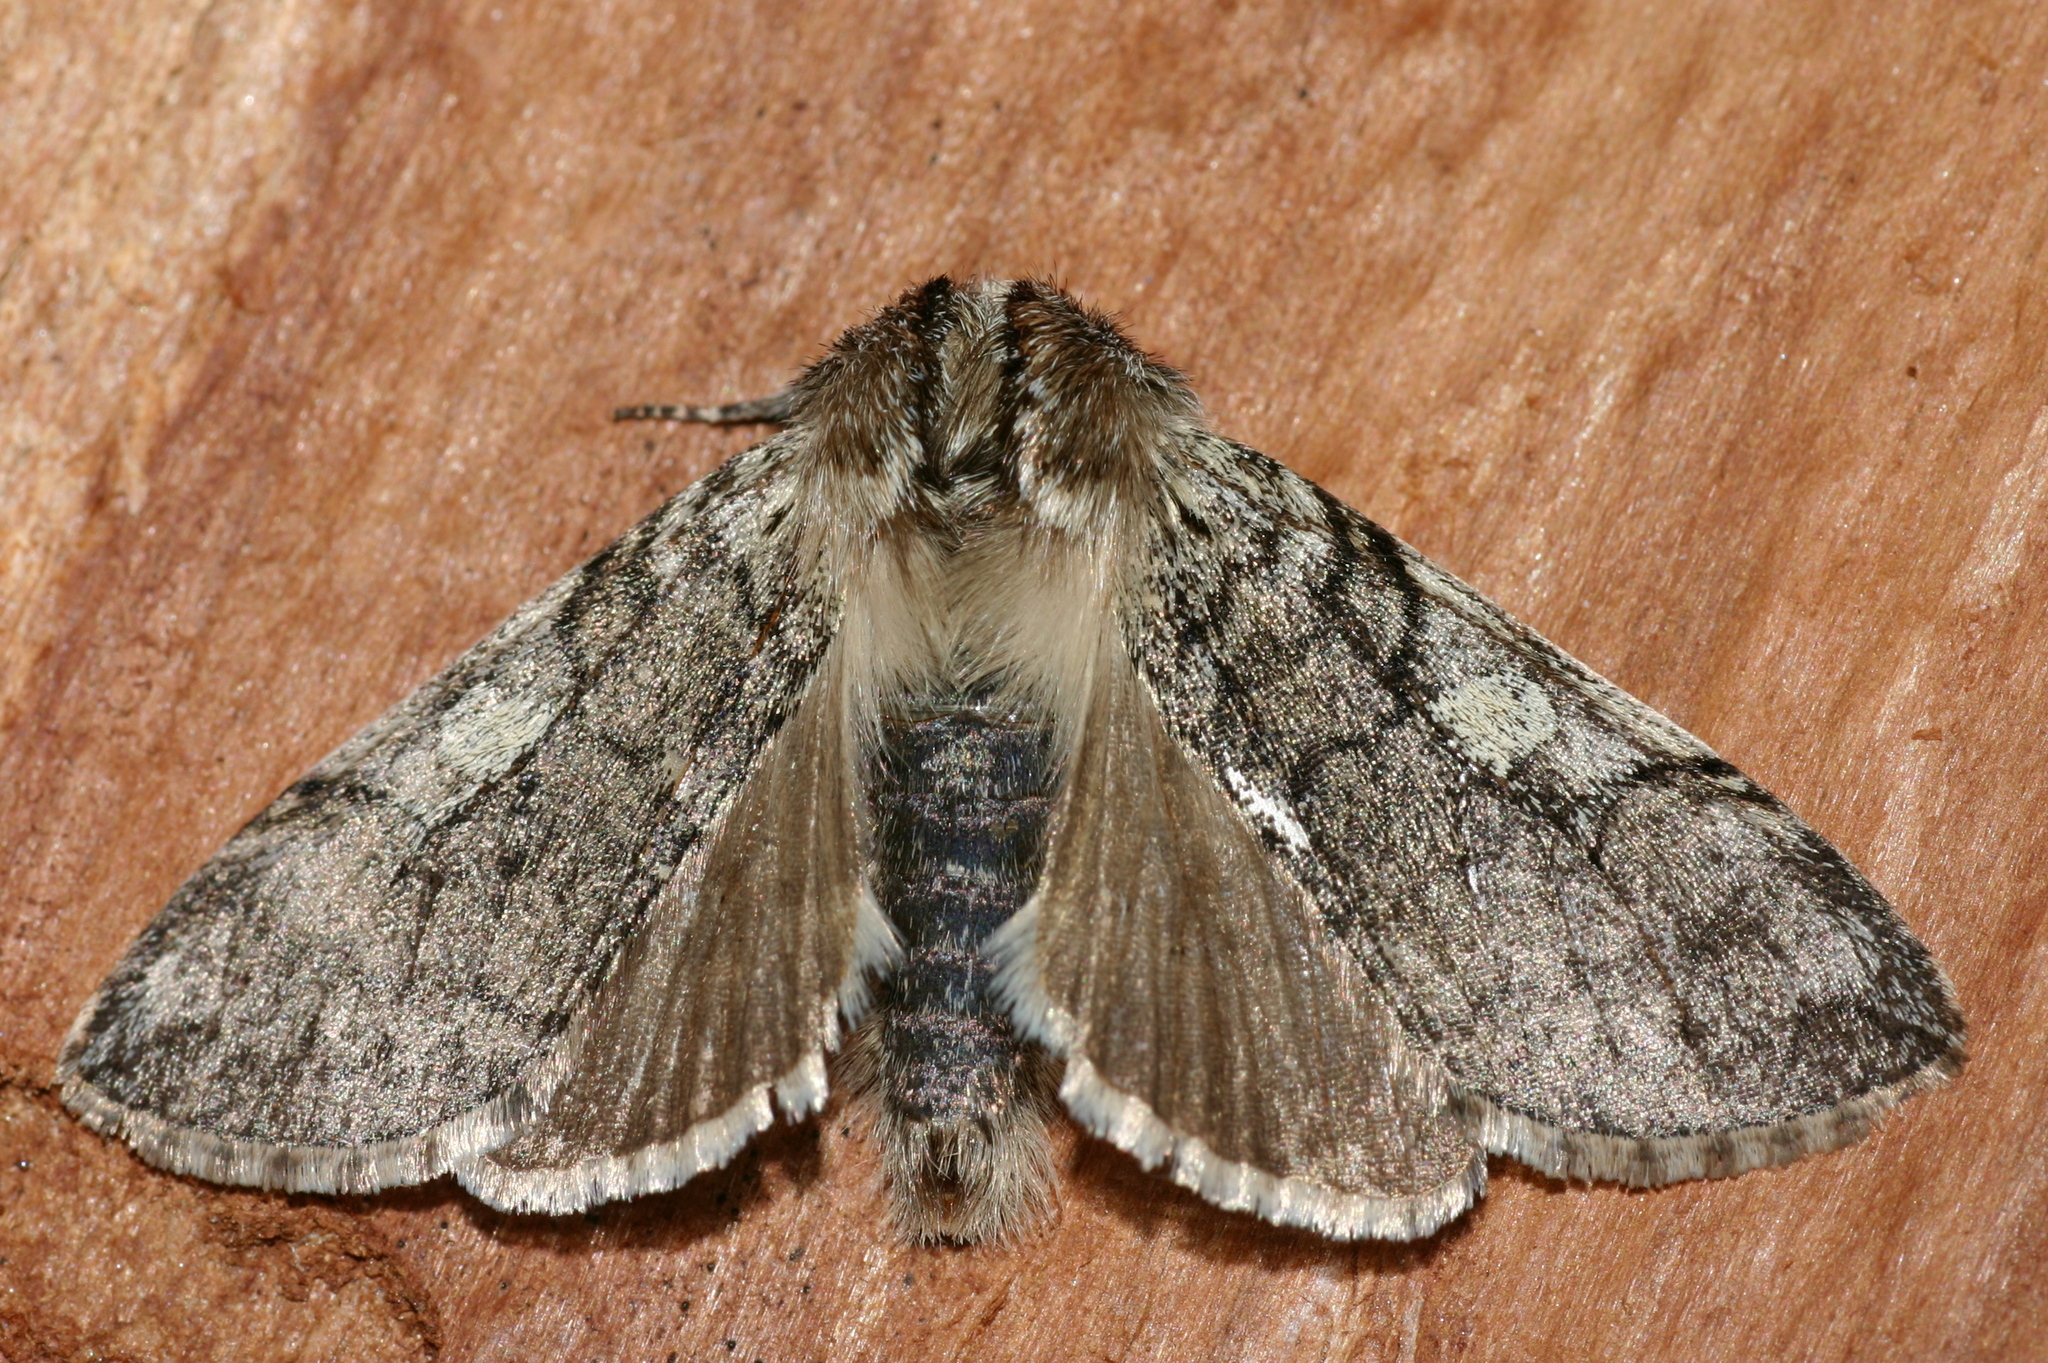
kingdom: Animalia
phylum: Arthropoda
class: Insecta
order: Lepidoptera
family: Drepanidae
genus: Achlya
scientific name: Achlya flavicornis
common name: Yellow horned
